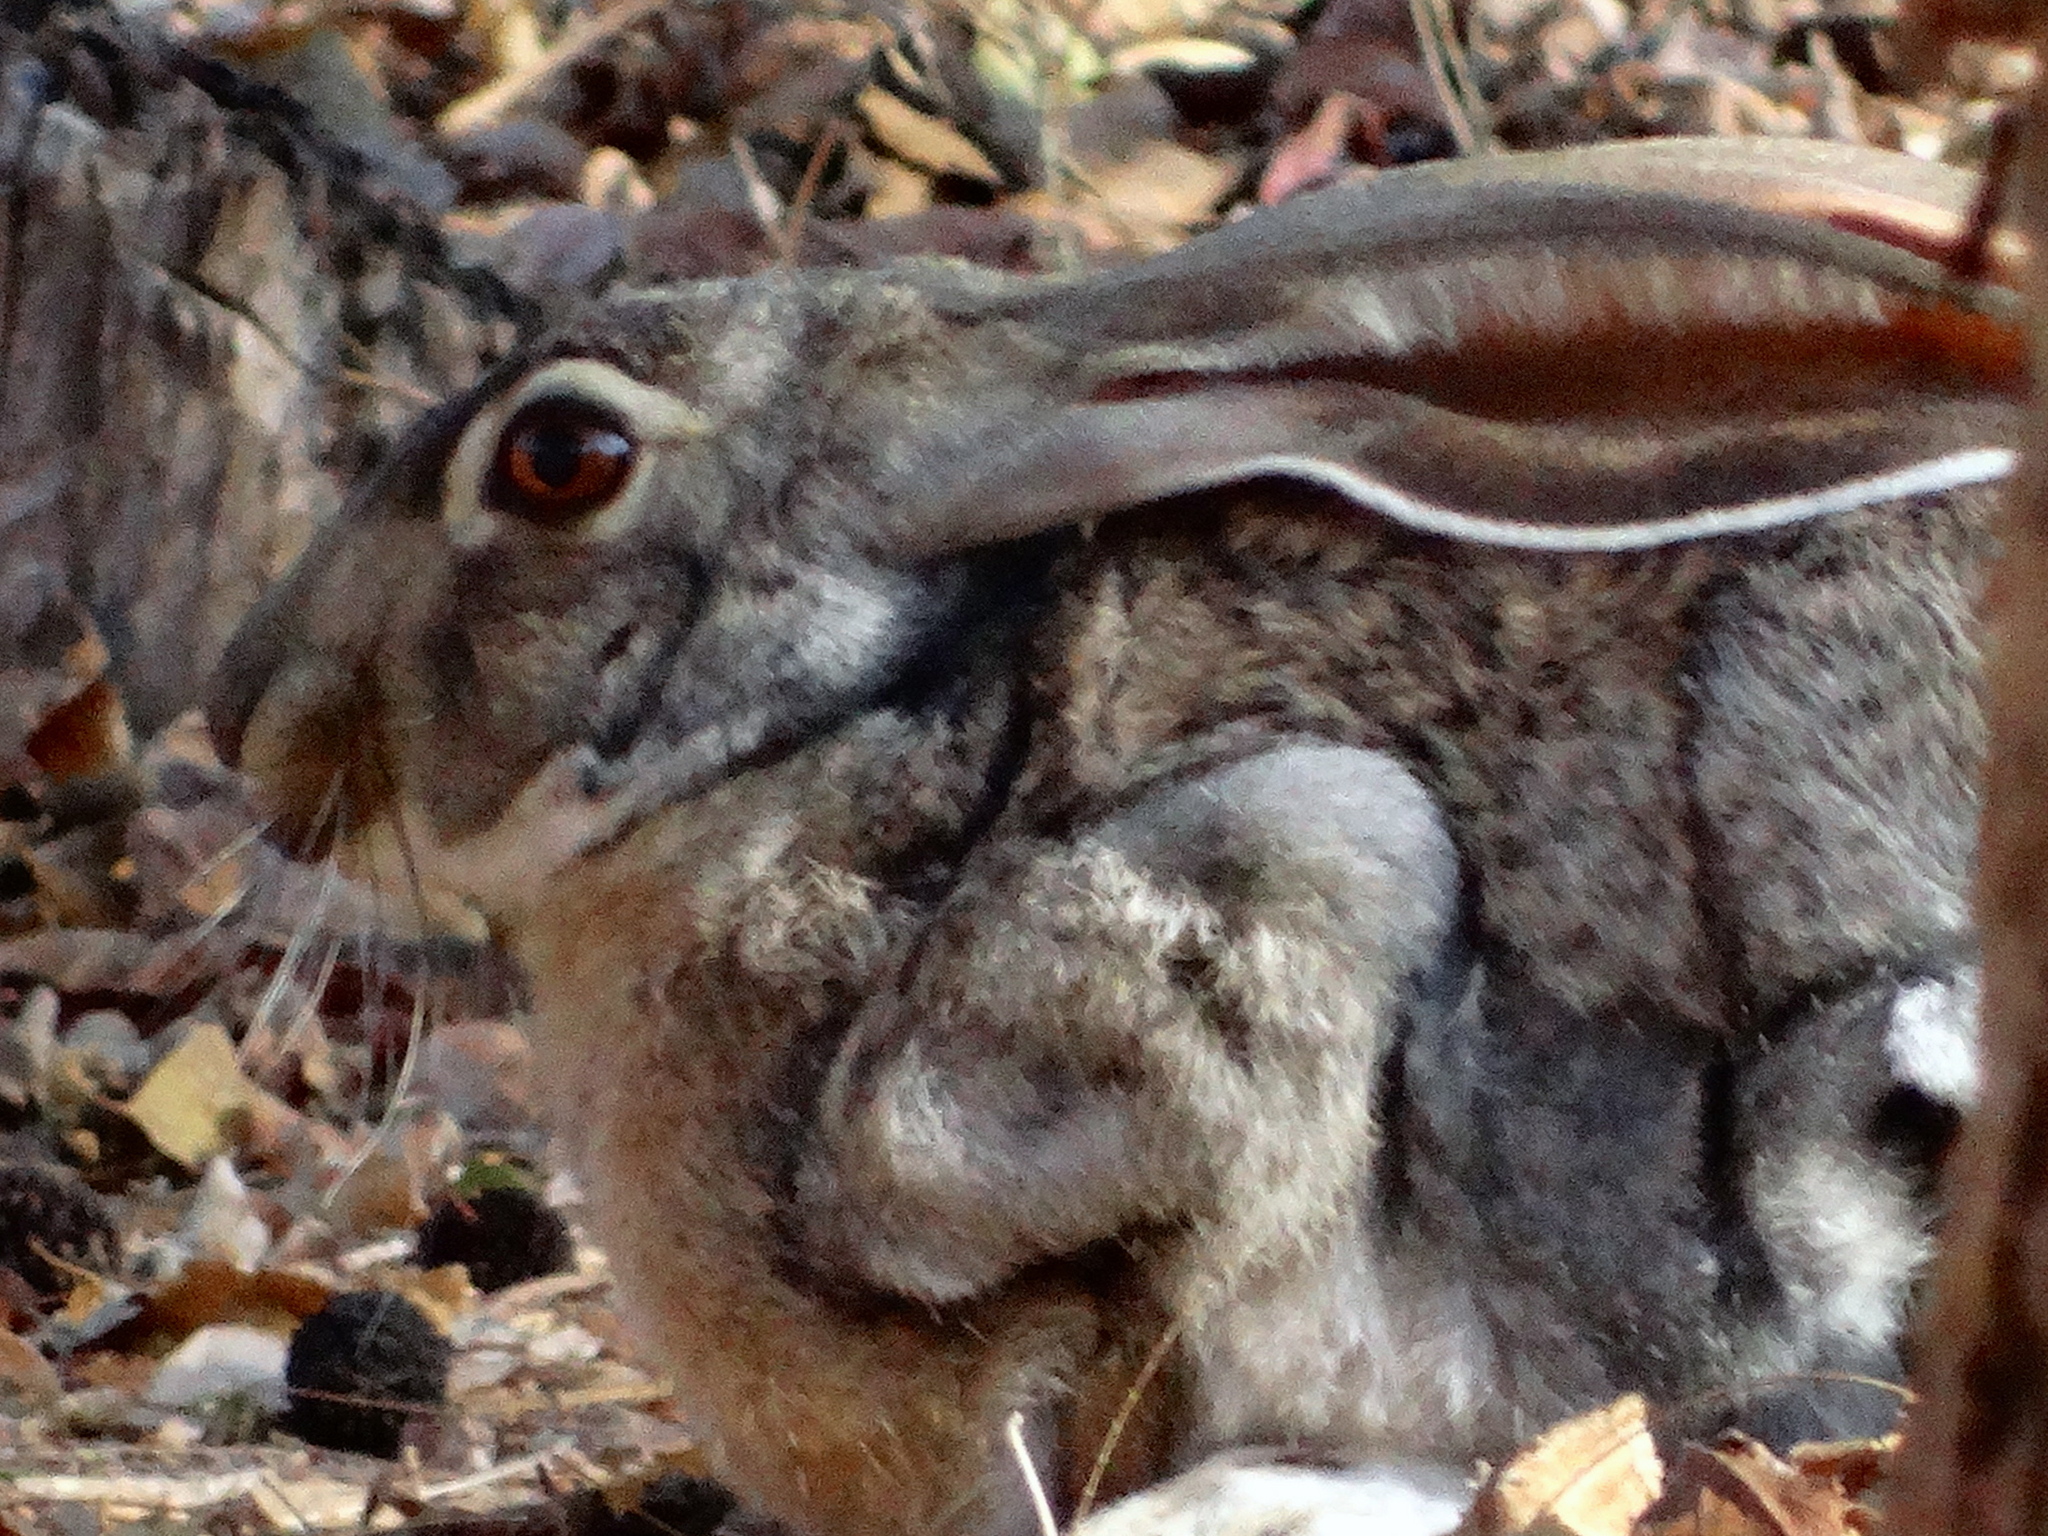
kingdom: Animalia
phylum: Chordata
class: Mammalia
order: Lagomorpha
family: Leporidae
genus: Lepus
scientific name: Lepus alleni
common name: Antelope jackrabbit
